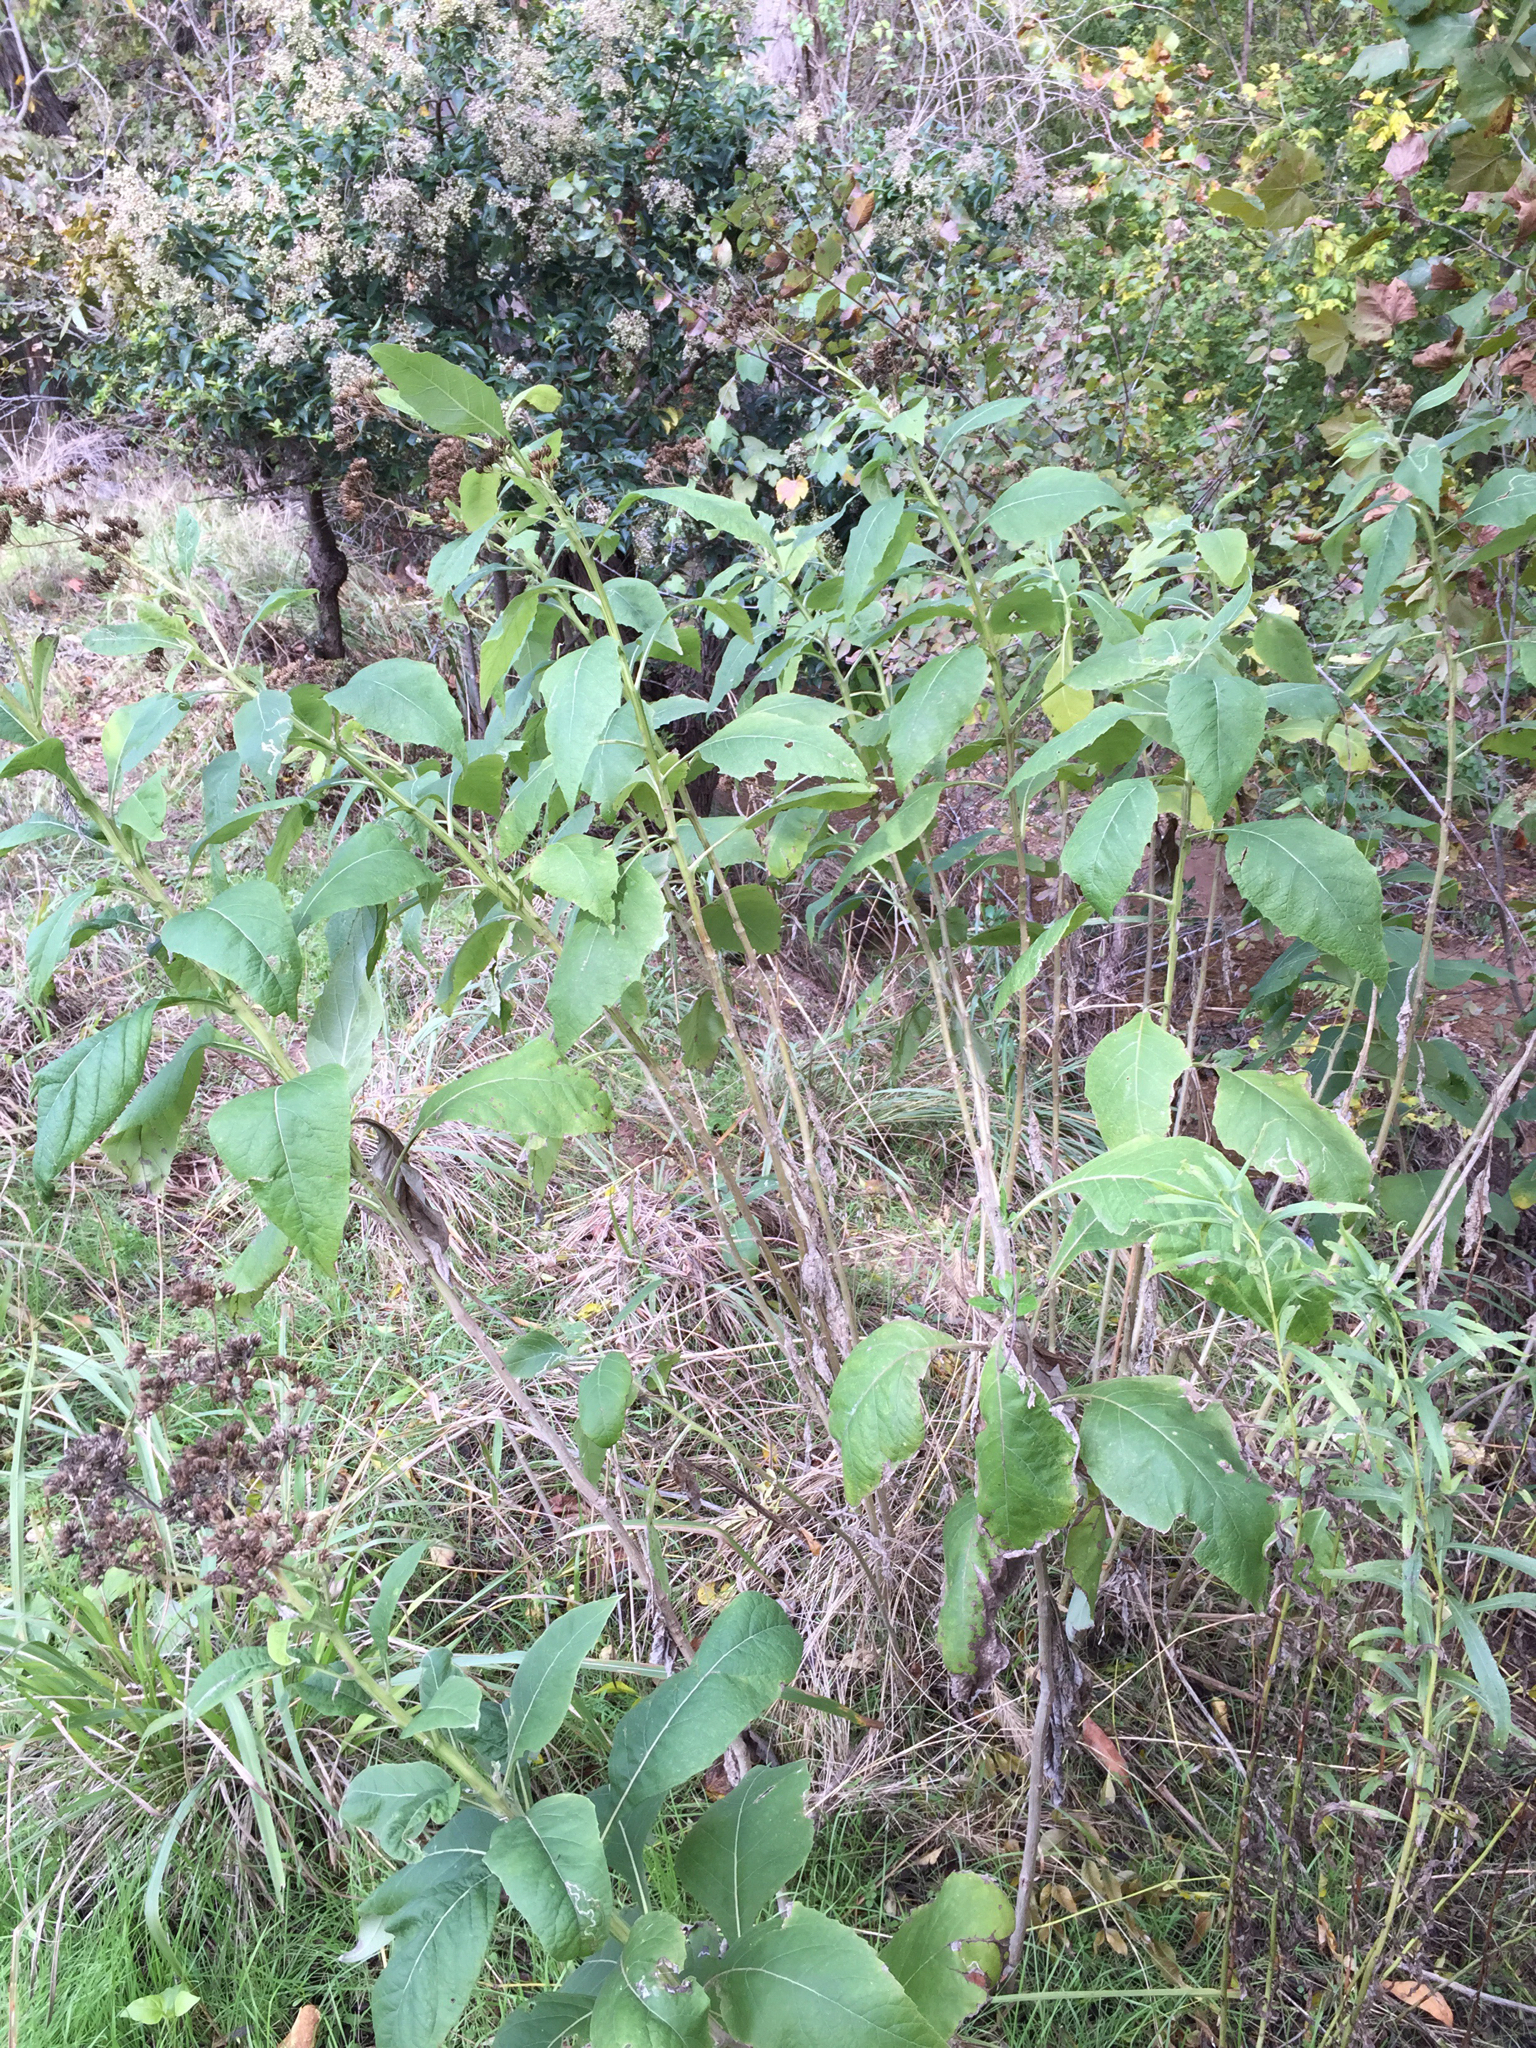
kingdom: Plantae
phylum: Tracheophyta
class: Magnoliopsida
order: Asterales
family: Asteraceae
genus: Verbesina
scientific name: Verbesina virginica
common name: Frostweed
